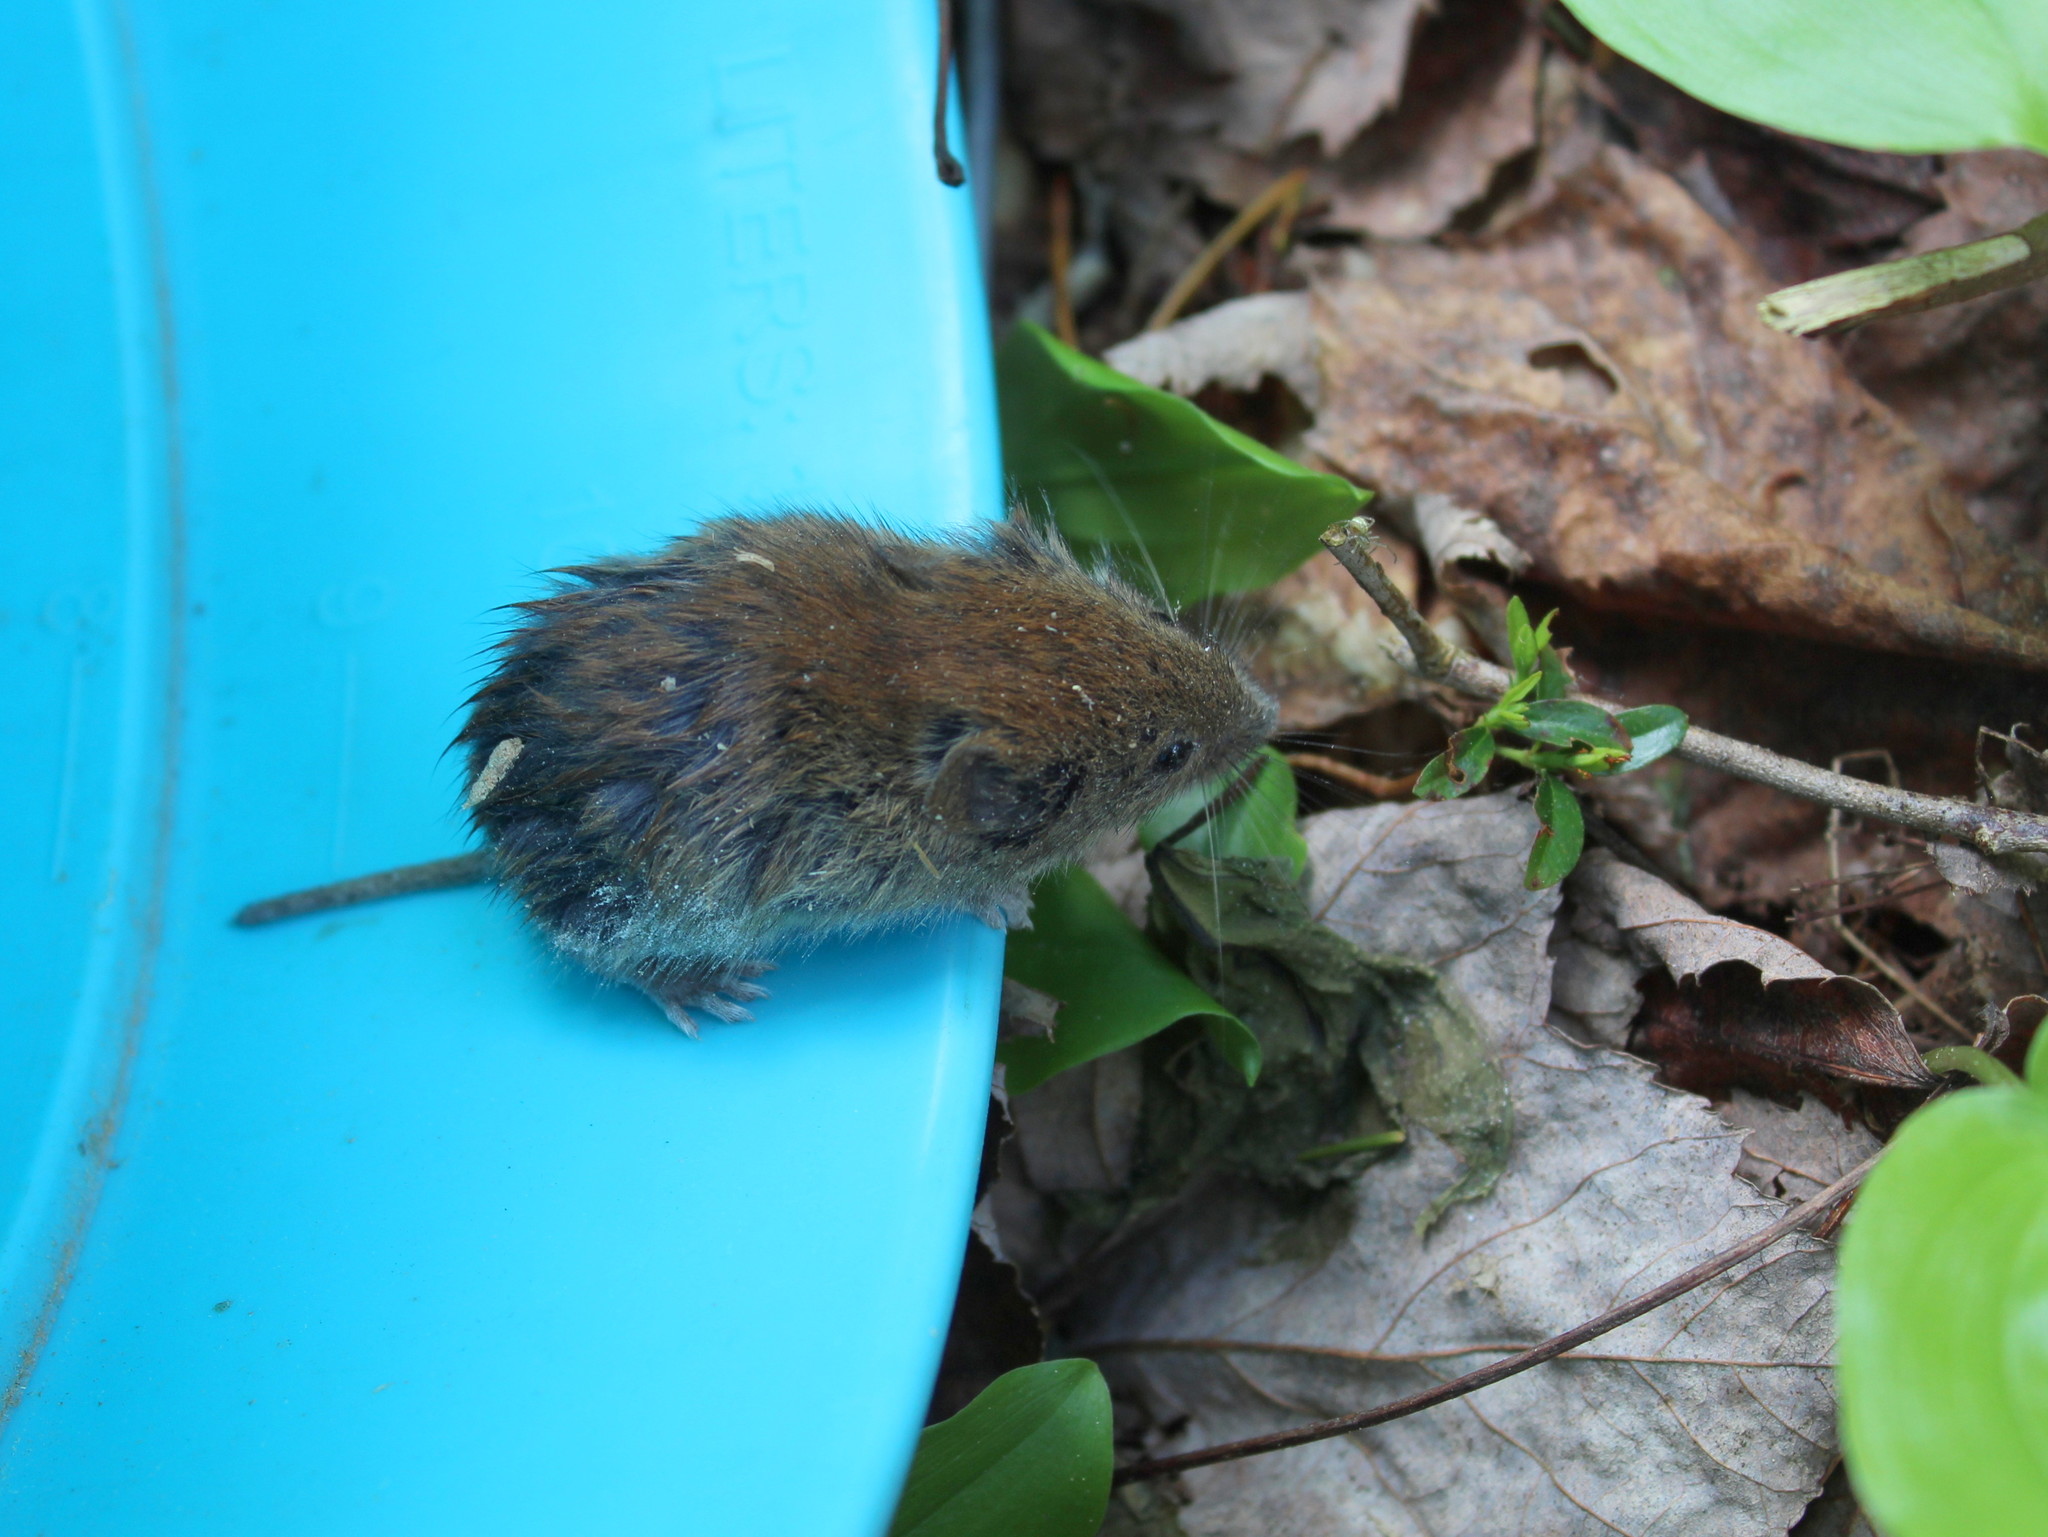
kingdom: Animalia
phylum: Chordata
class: Mammalia
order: Rodentia
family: Cricetidae
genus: Myodes
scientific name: Myodes gapperi
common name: Southern red-backed vole
